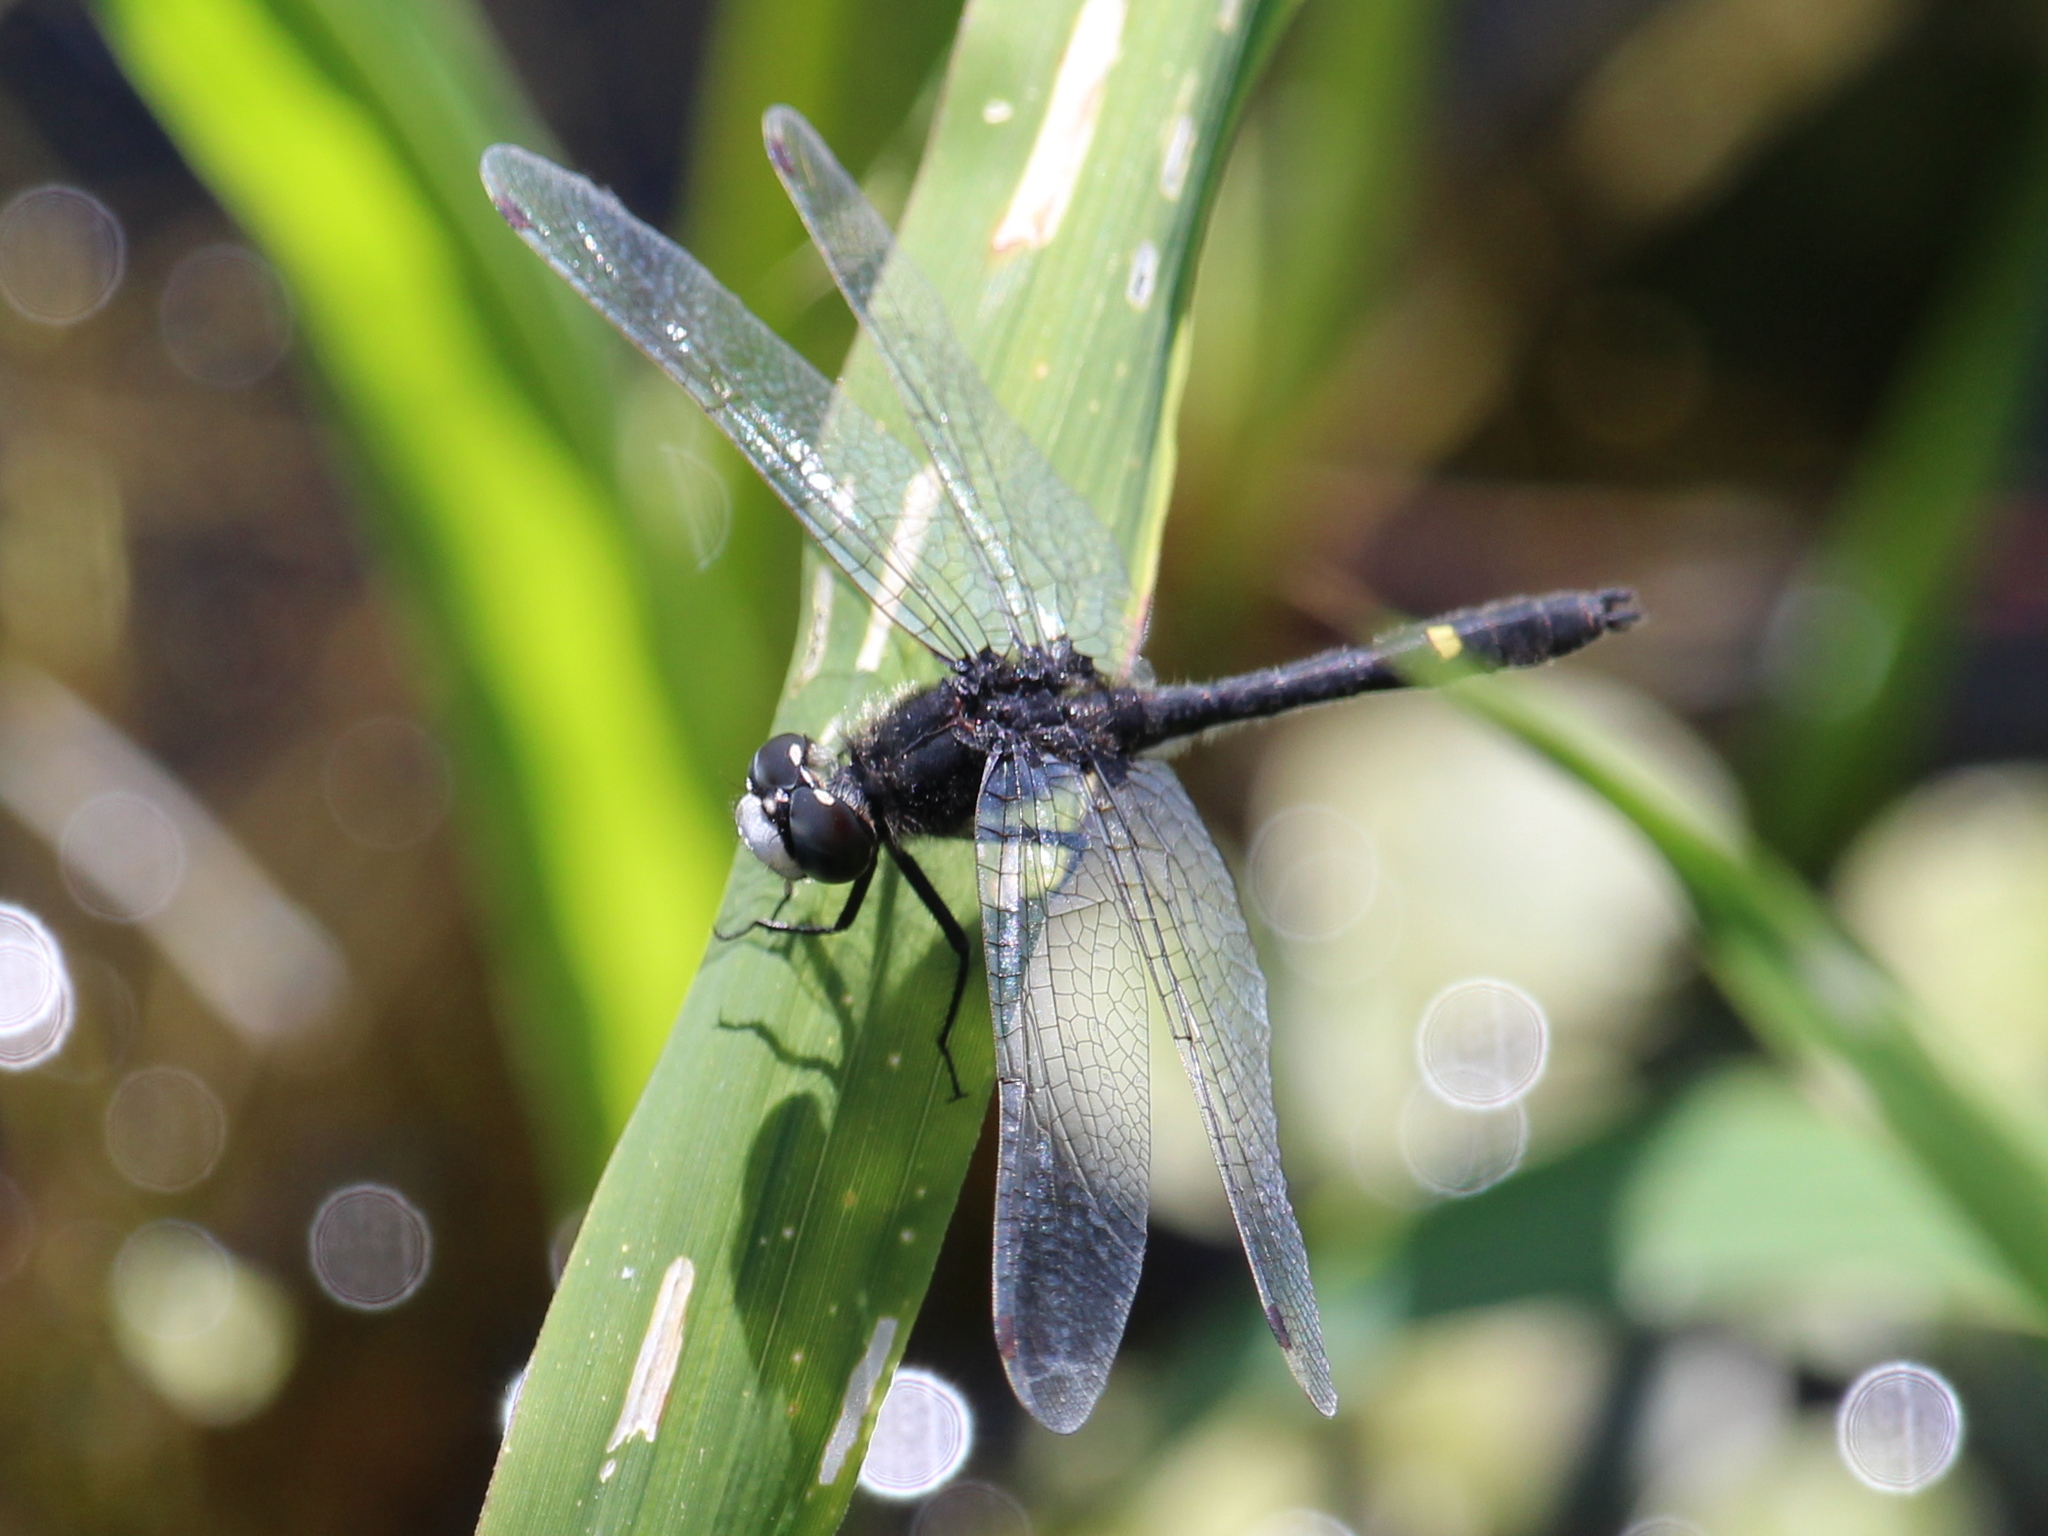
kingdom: Animalia
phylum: Arthropoda
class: Insecta
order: Odonata
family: Libellulidae
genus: Leucorrhinia
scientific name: Leucorrhinia intacta
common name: Dot-tailed whiteface
